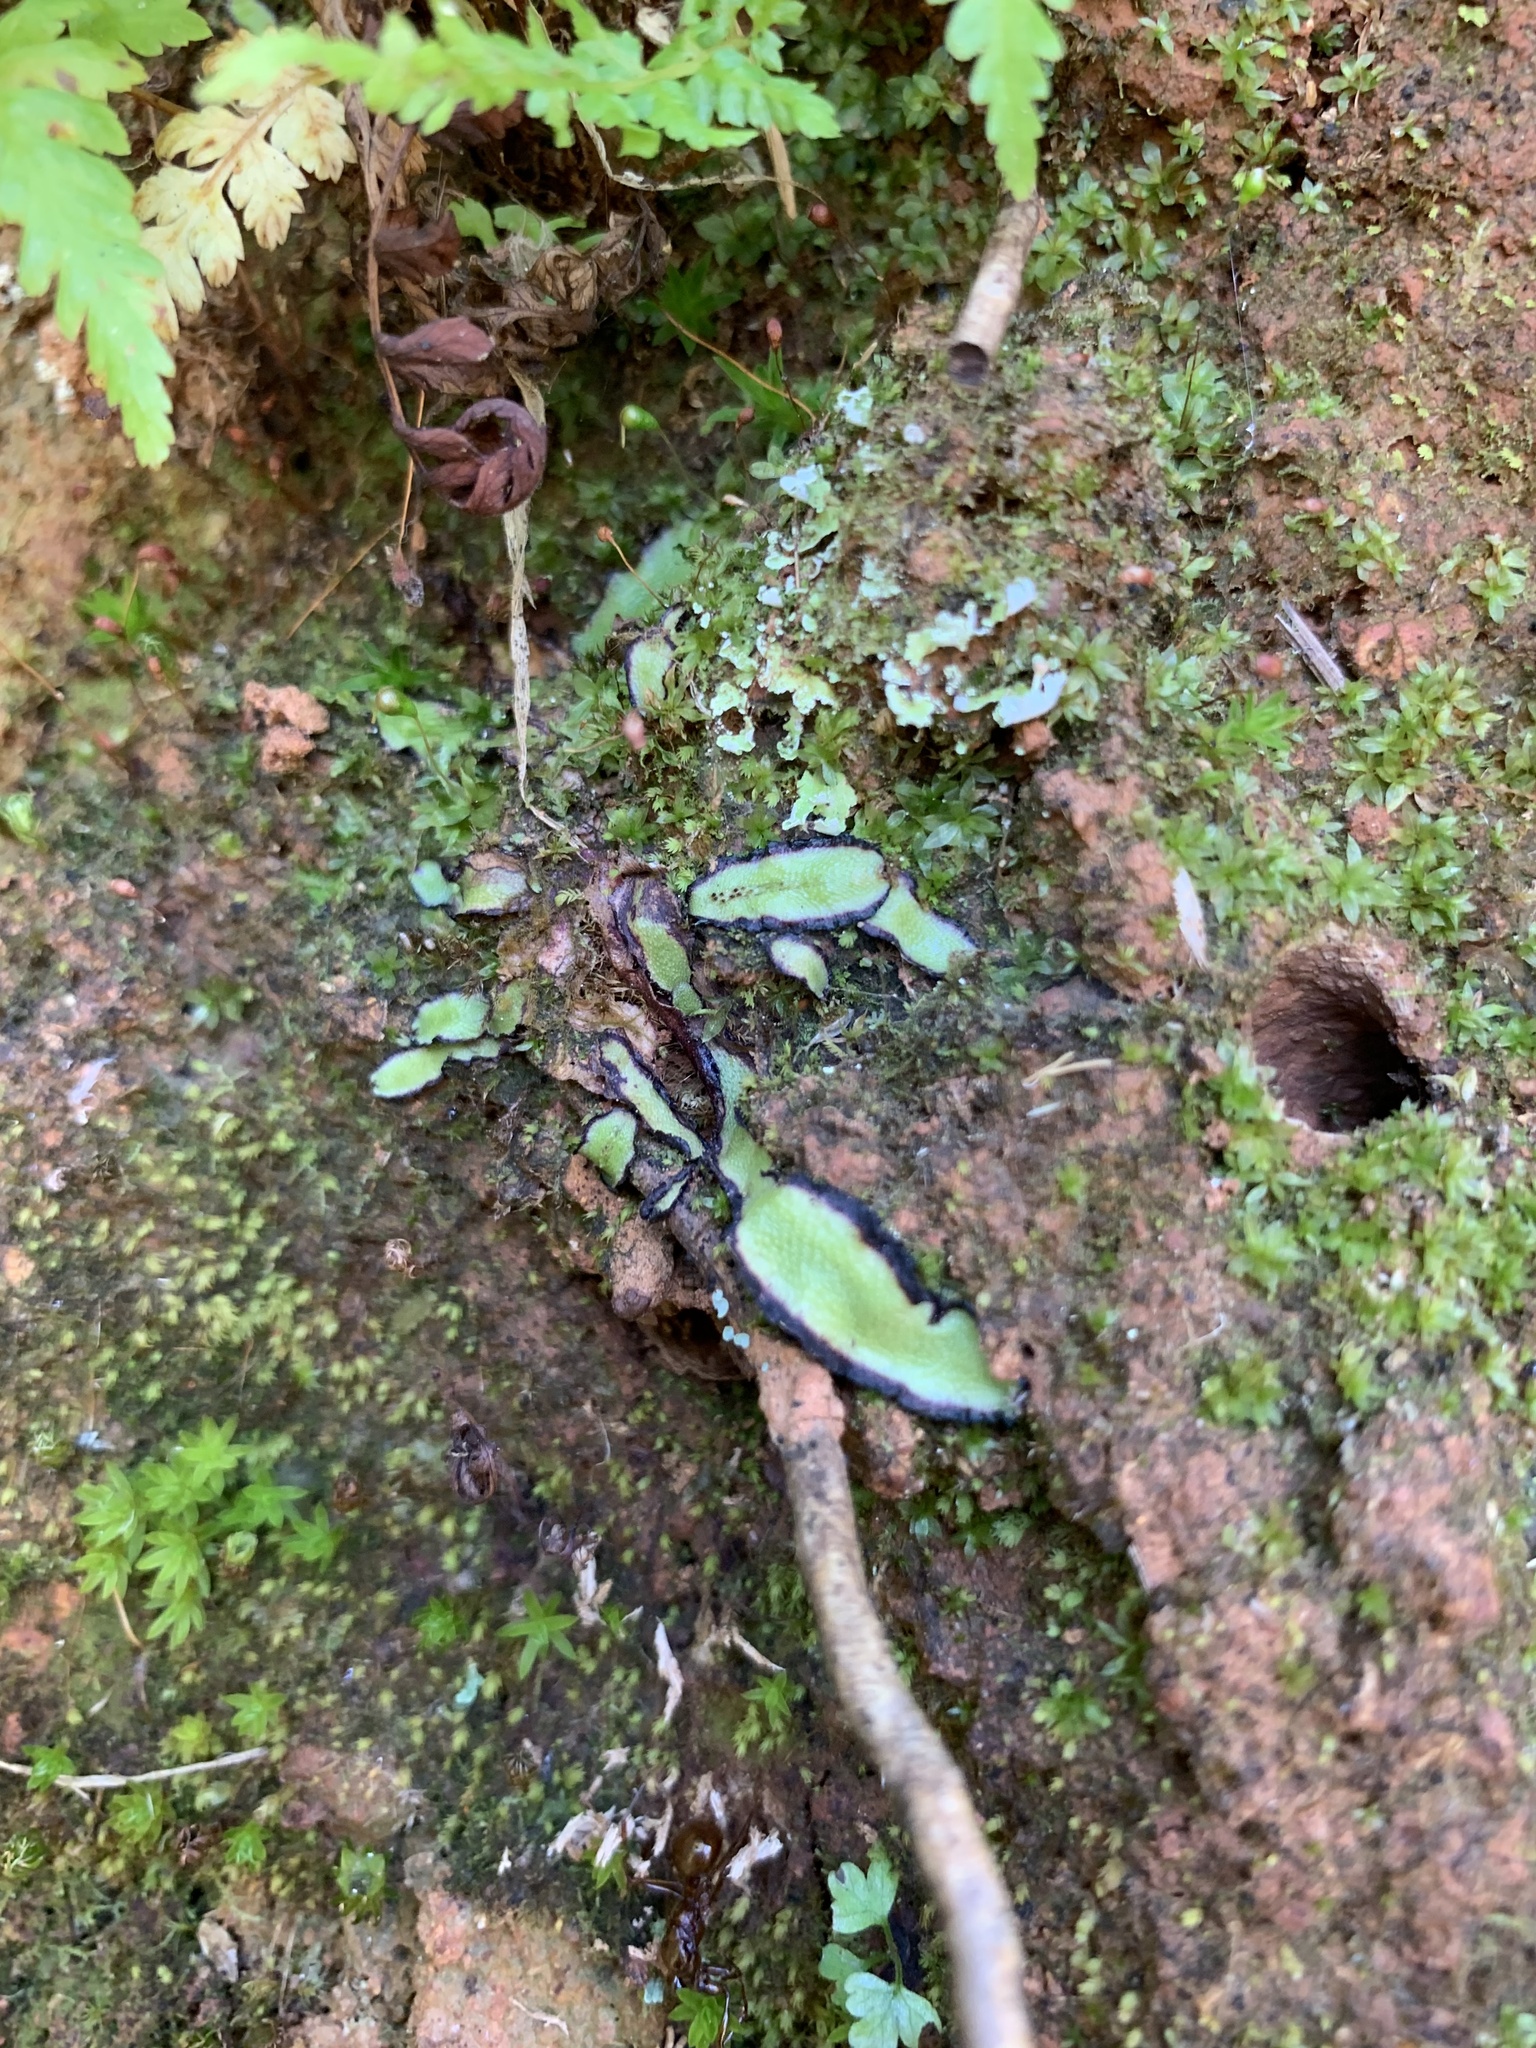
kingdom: Plantae
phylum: Marchantiophyta
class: Marchantiopsida
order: Marchantiales
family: Aytoniaceae
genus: Asterella
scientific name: Asterella drummondii
